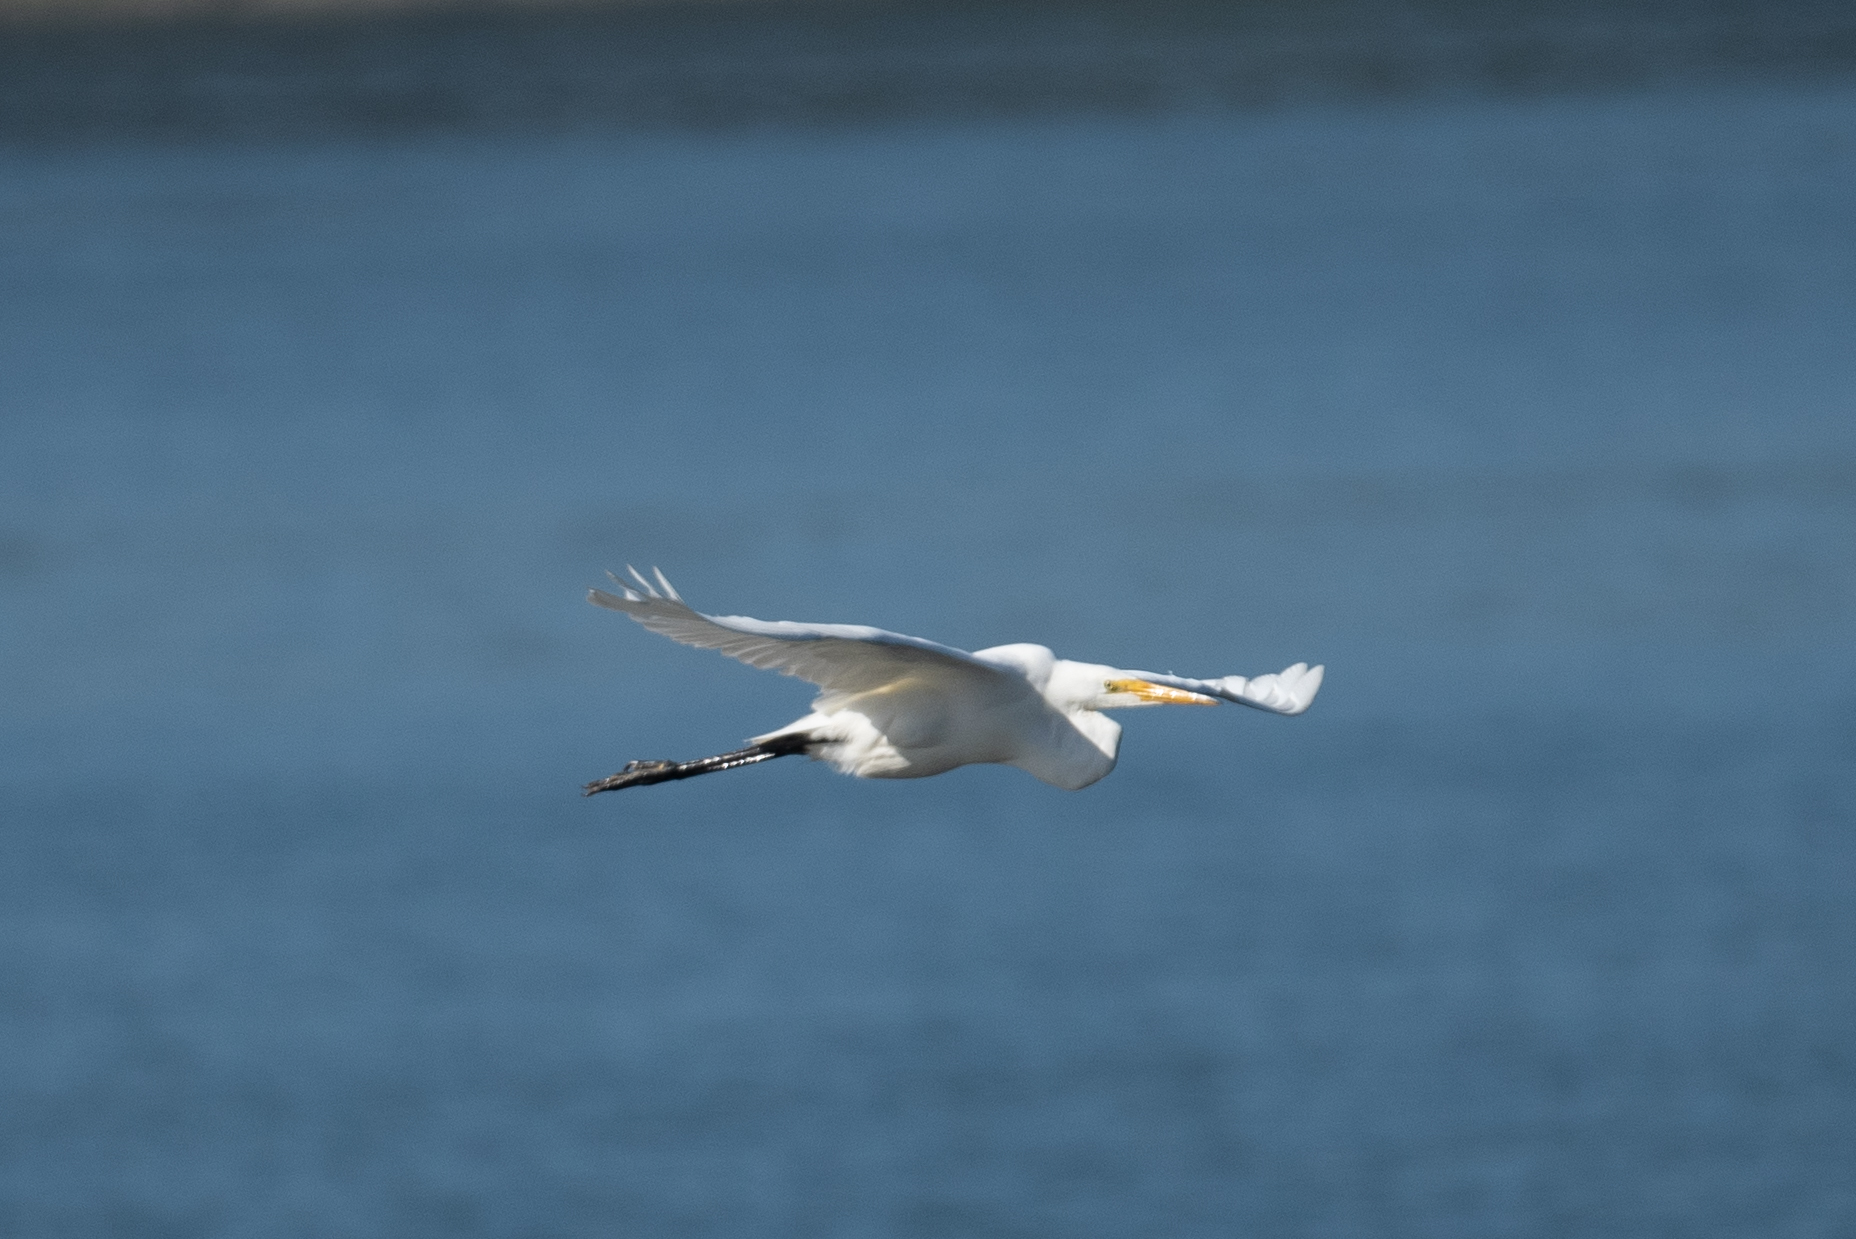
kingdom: Animalia
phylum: Chordata
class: Aves
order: Pelecaniformes
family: Ardeidae
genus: Ardea
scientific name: Ardea alba
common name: Great egret
